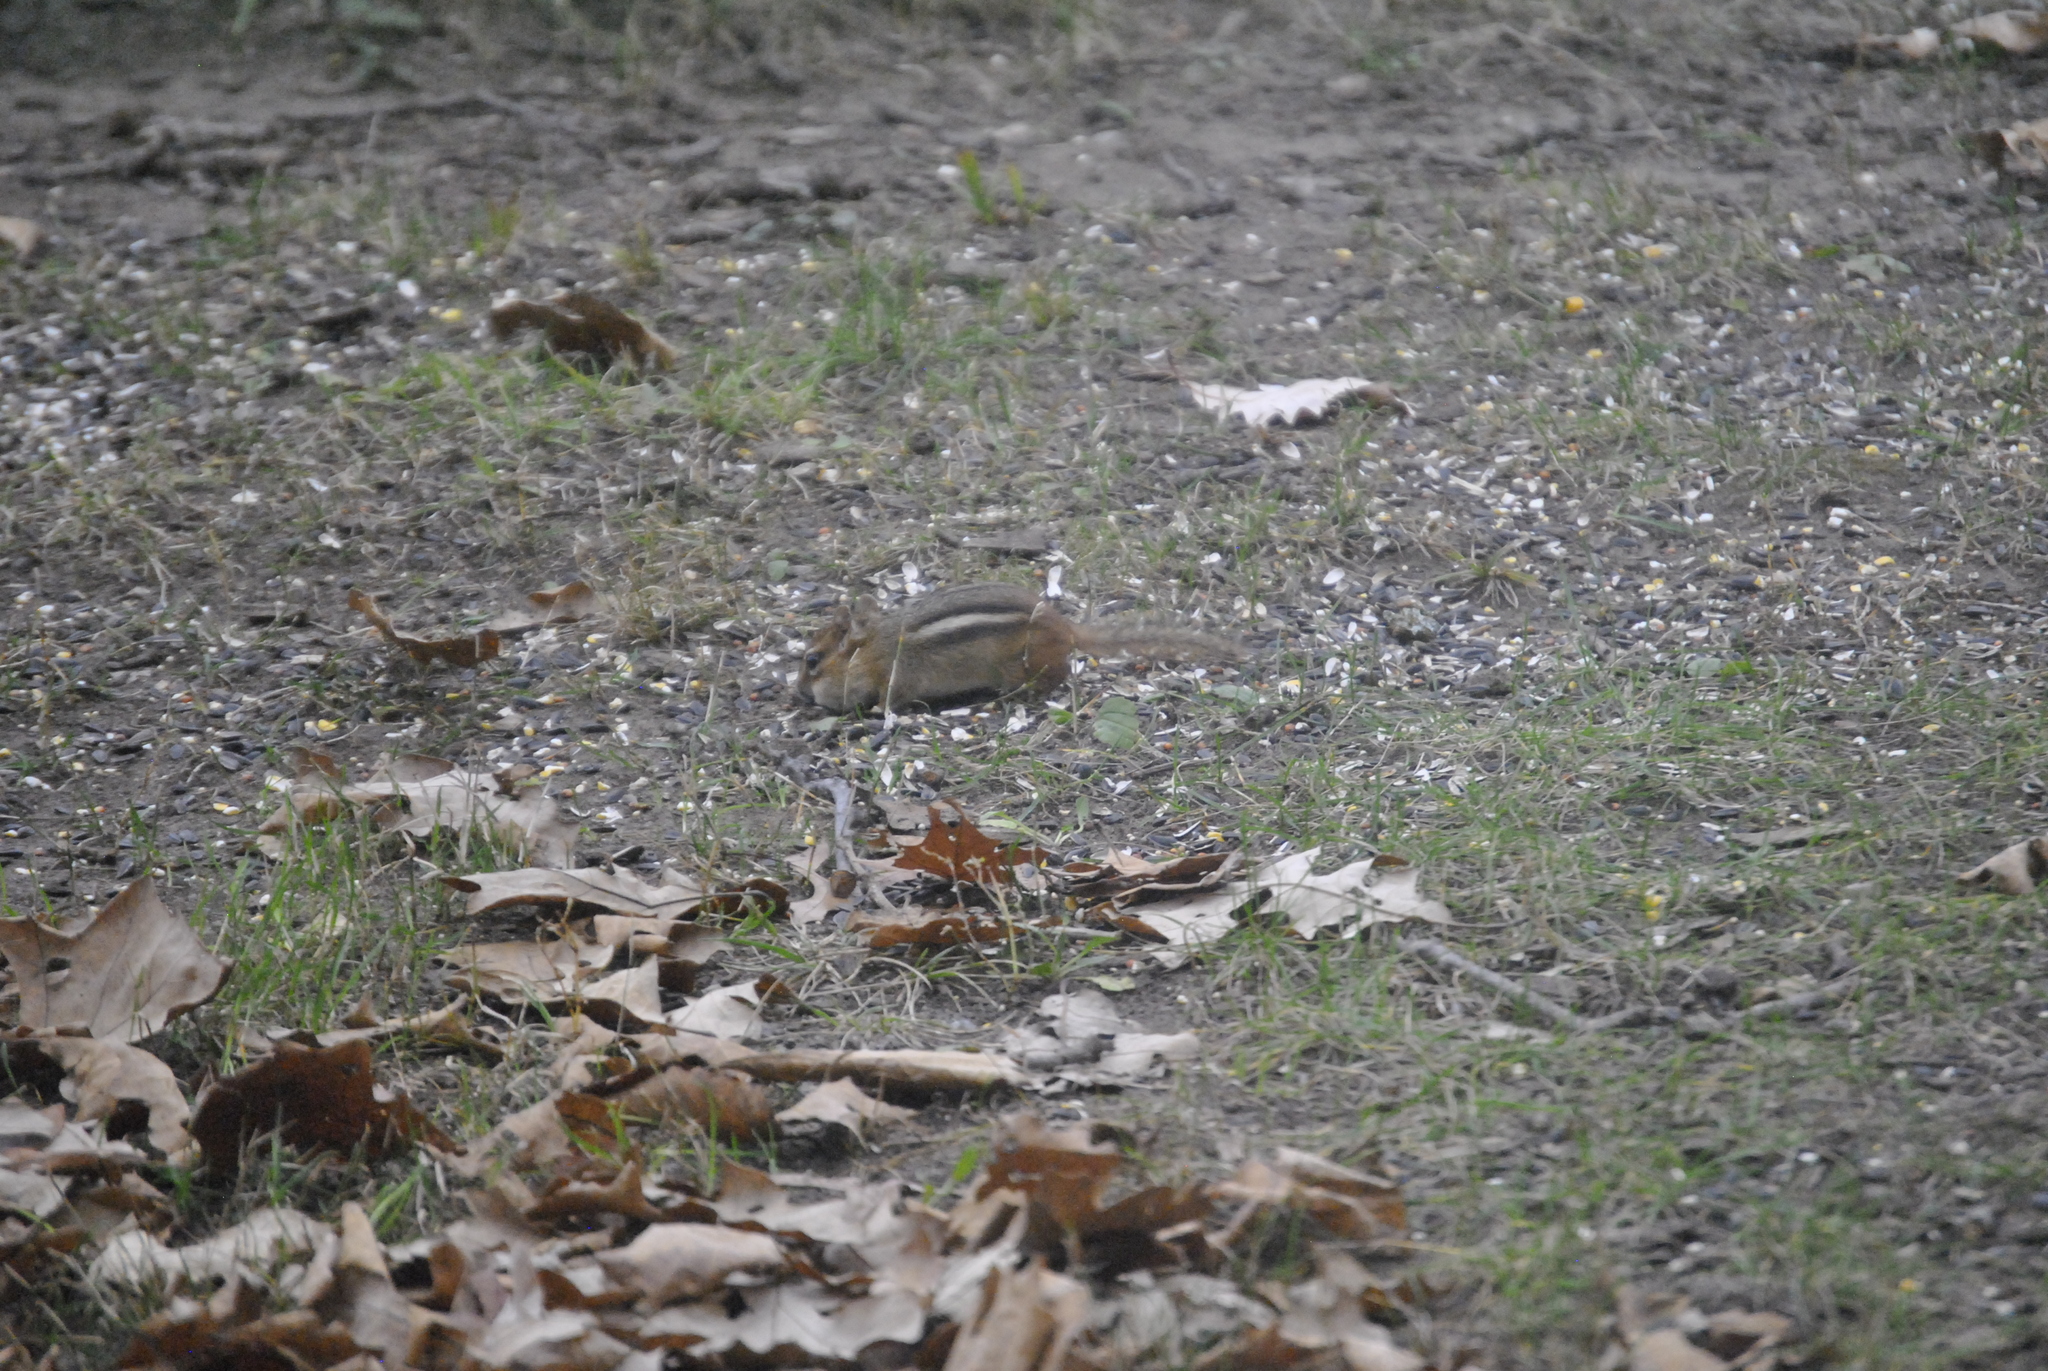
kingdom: Animalia
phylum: Chordata
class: Mammalia
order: Rodentia
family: Sciuridae
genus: Tamias
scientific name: Tamias striatus
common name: Eastern chipmunk
